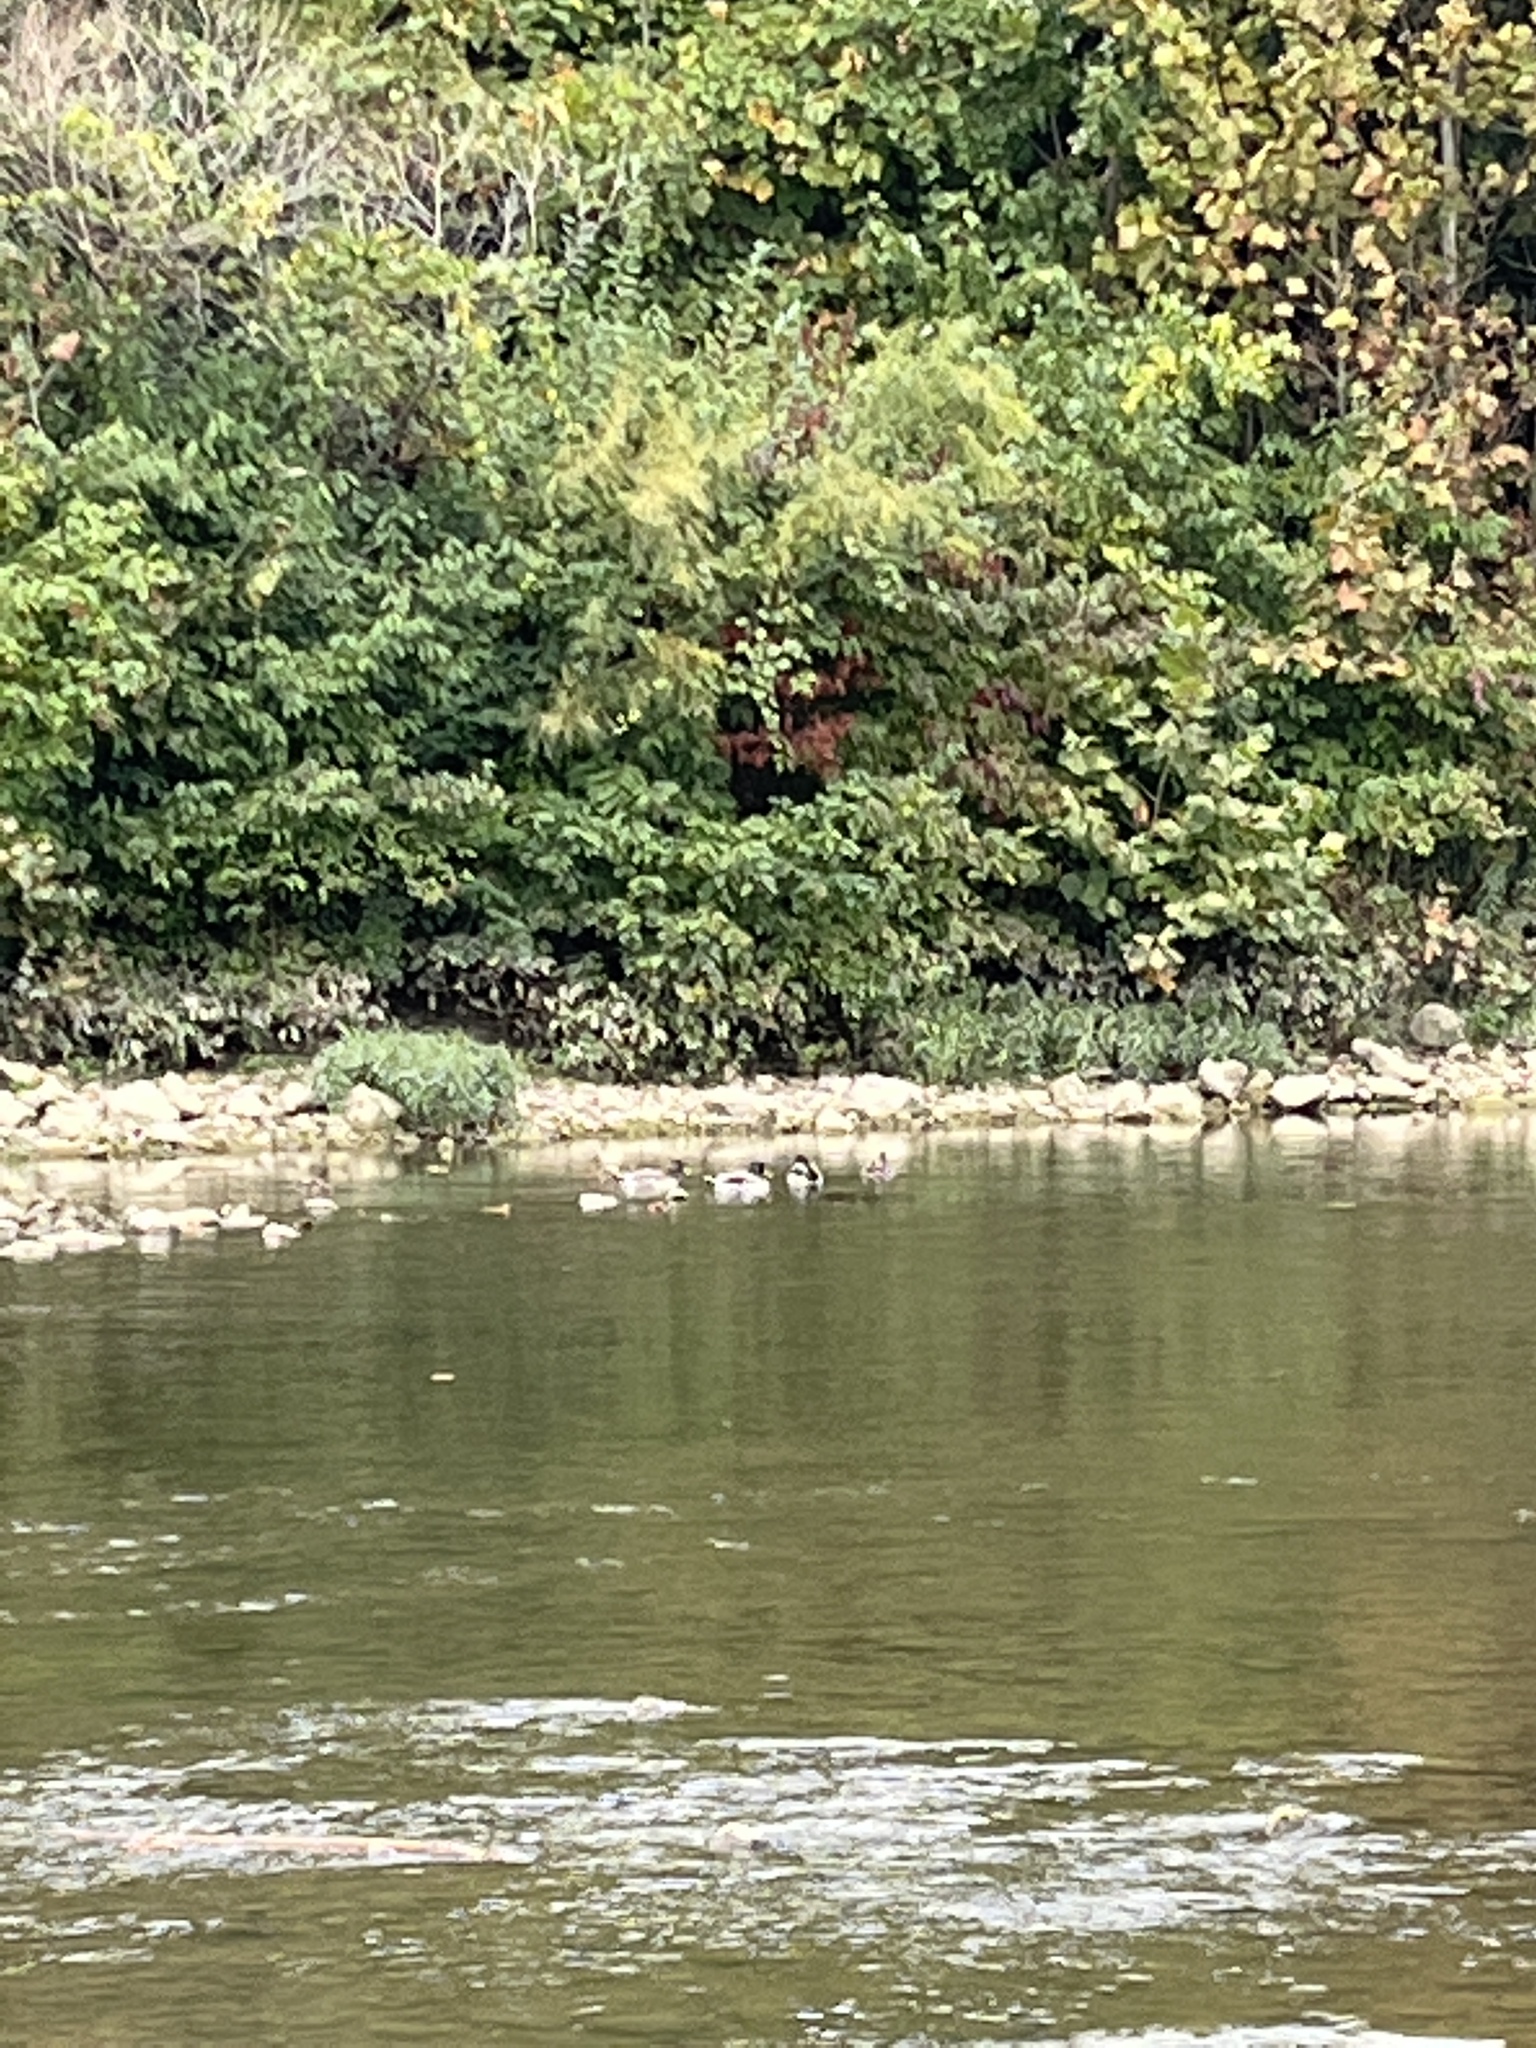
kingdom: Animalia
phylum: Chordata
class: Aves
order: Anseriformes
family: Anatidae
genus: Anas
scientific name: Anas platyrhynchos
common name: Mallard
